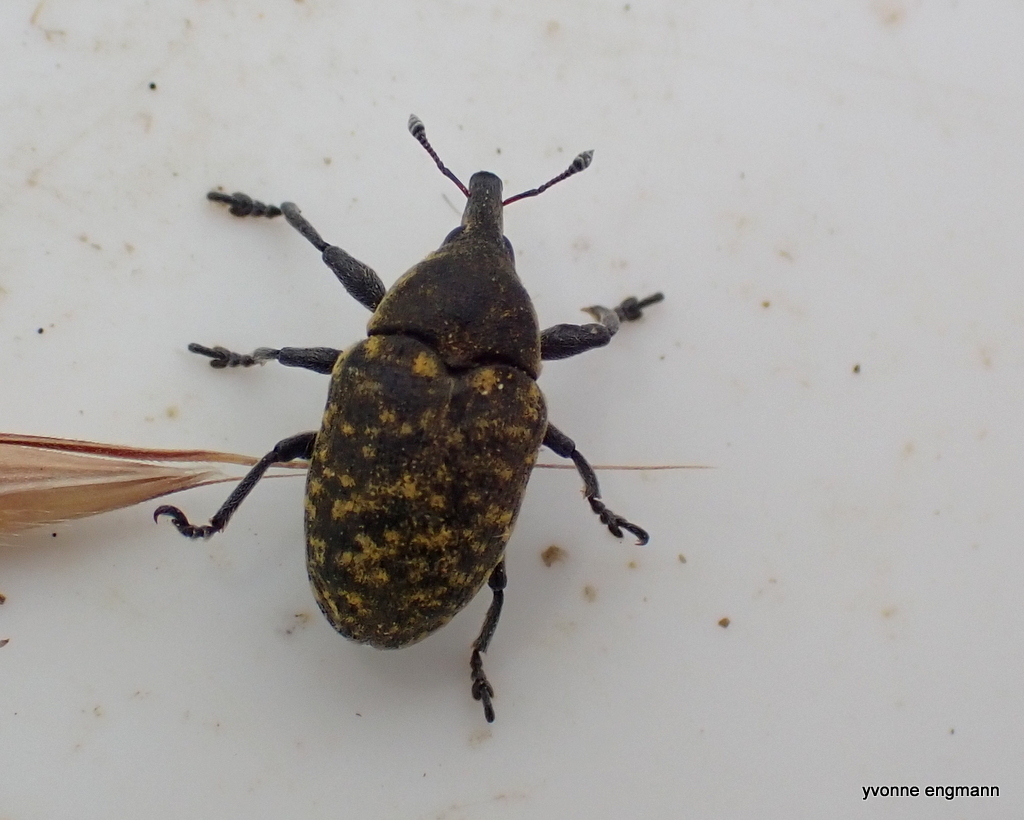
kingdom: Animalia
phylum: Arthropoda
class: Insecta
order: Coleoptera
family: Curculionidae
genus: Larinus
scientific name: Larinus turbinatus
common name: Weevil
